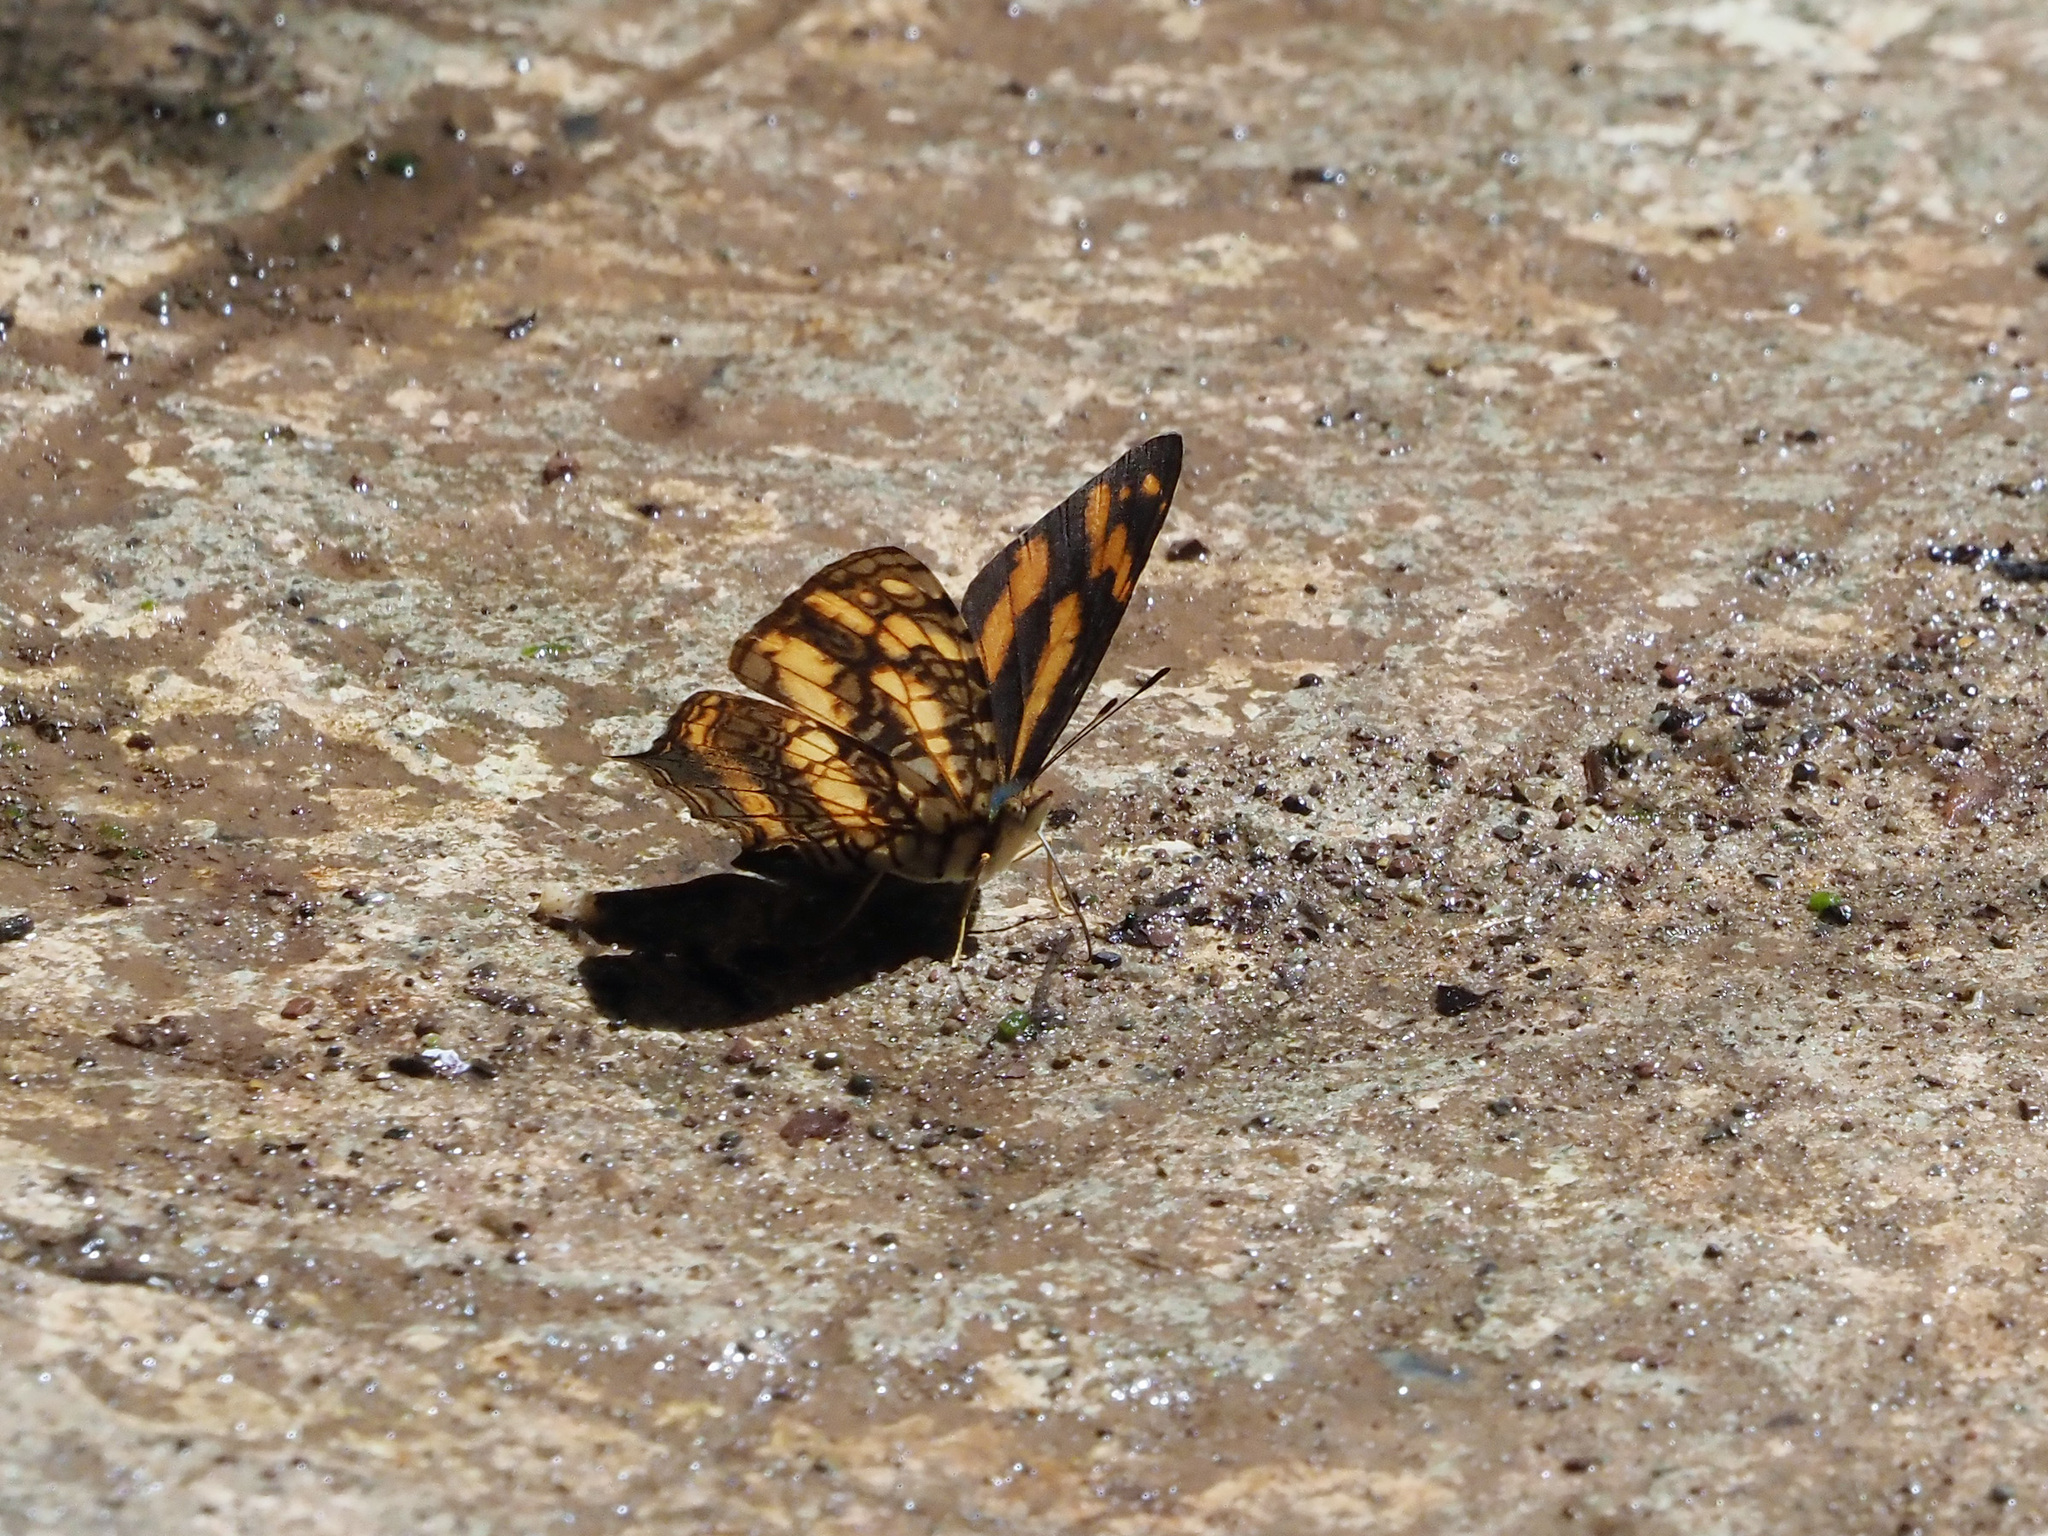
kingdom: Animalia
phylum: Arthropoda
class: Insecta
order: Lepidoptera
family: Nymphalidae
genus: Symbrenthia
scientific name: Symbrenthia hypatia
